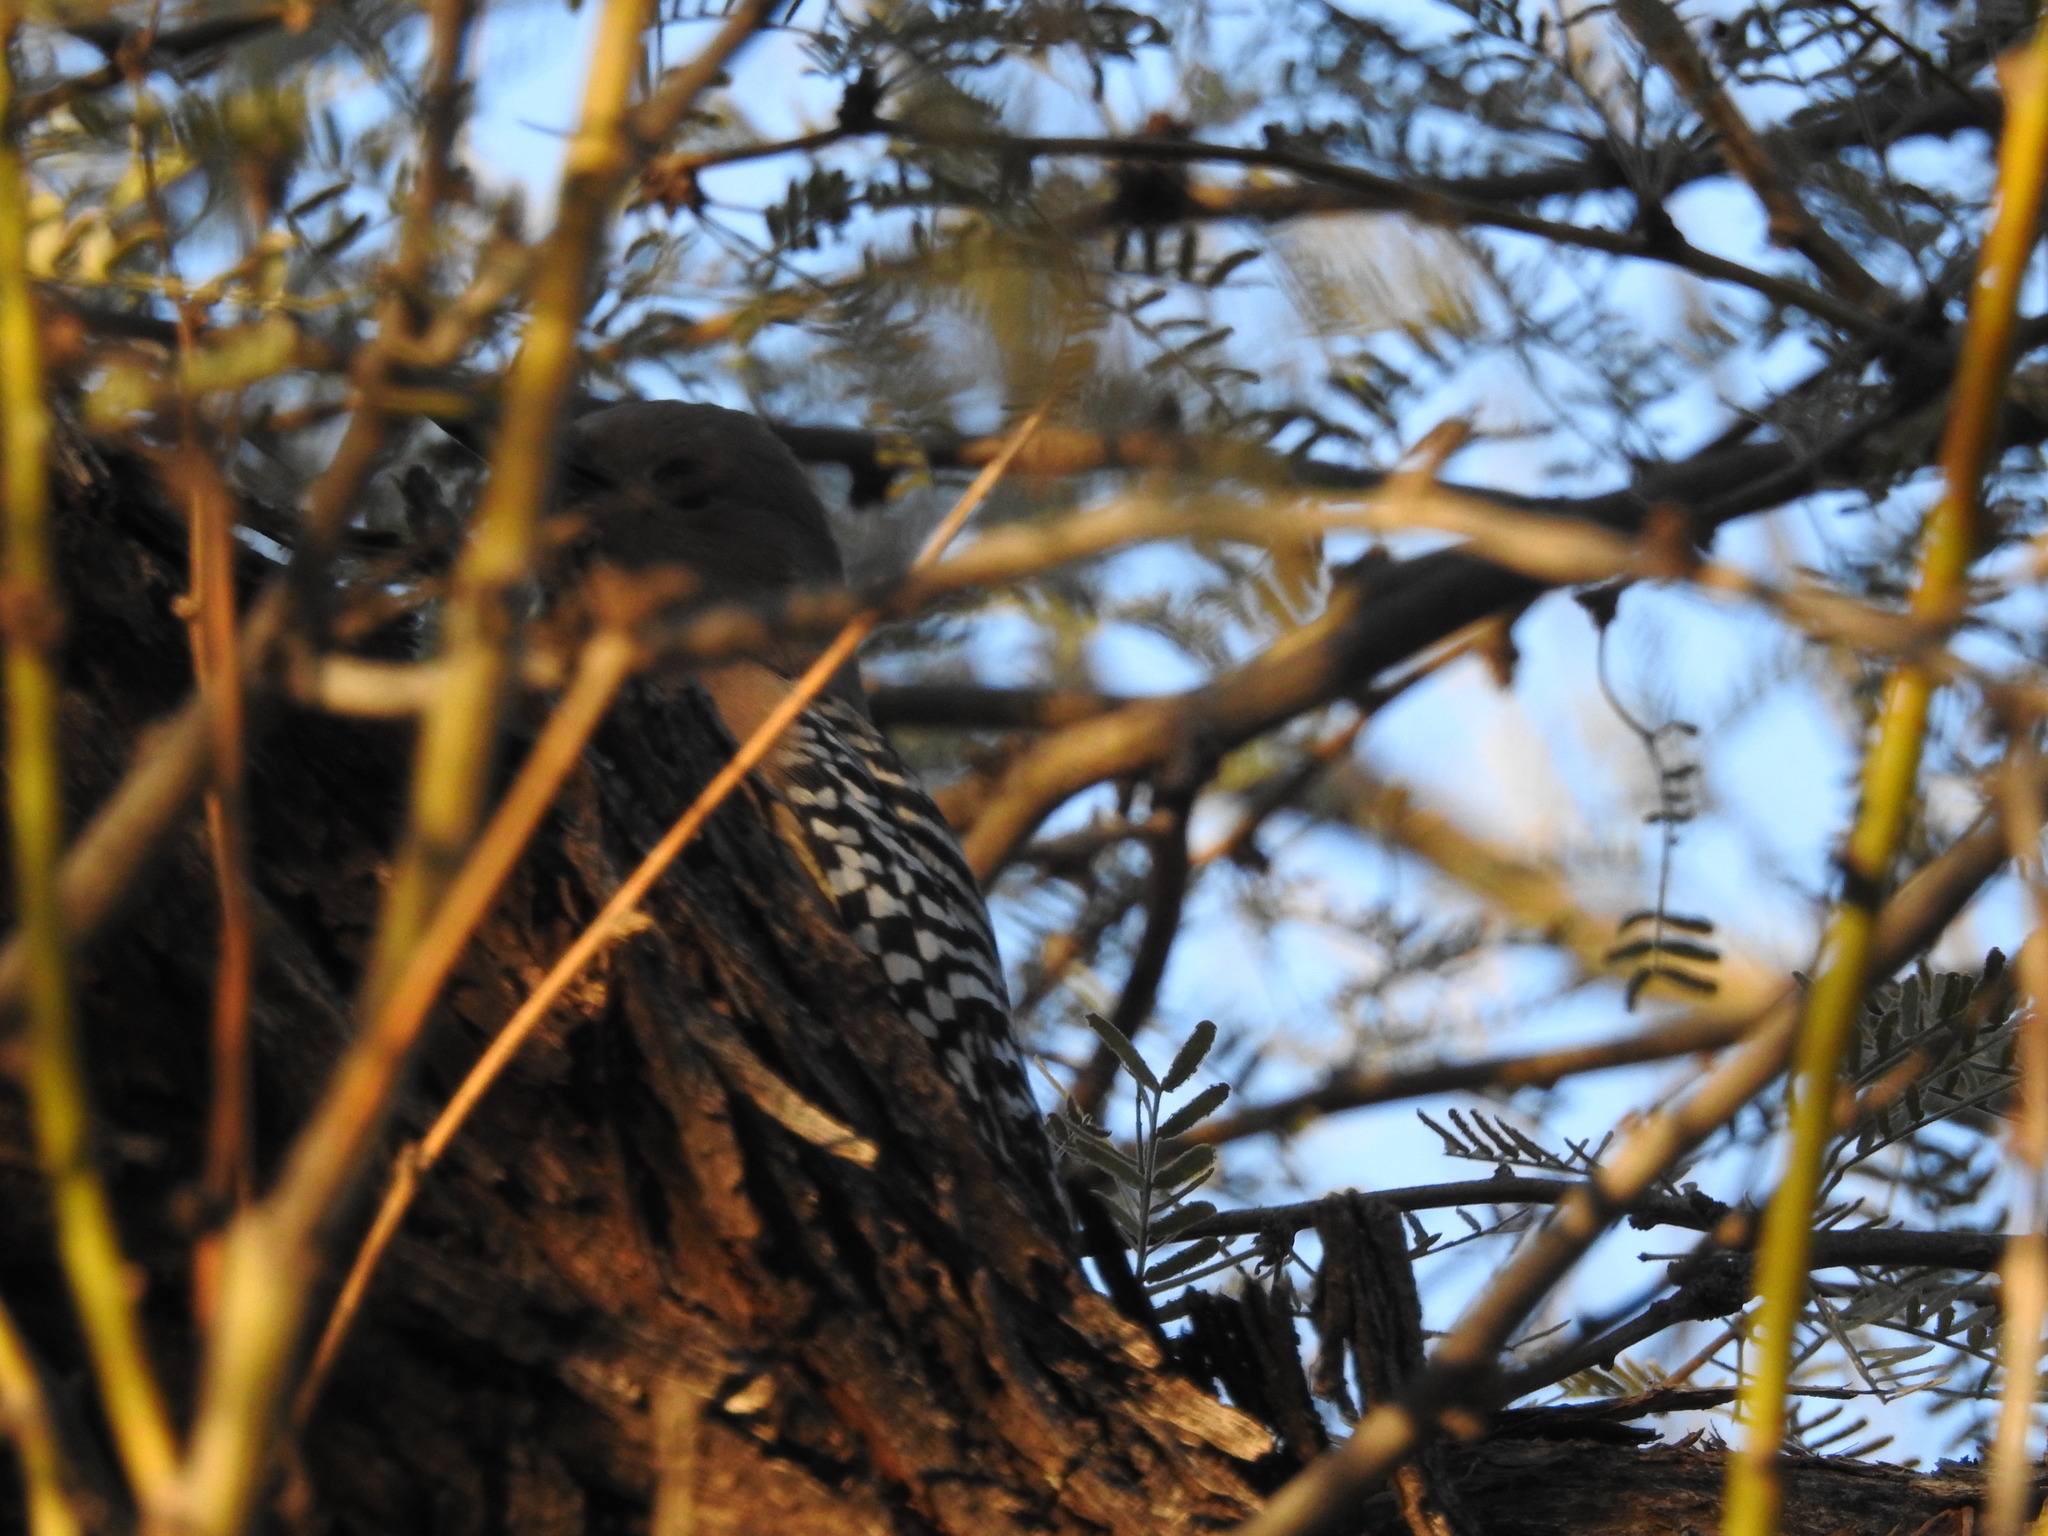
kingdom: Animalia
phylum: Chordata
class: Aves
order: Piciformes
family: Picidae
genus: Melanerpes
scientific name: Melanerpes uropygialis
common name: Gila woodpecker
